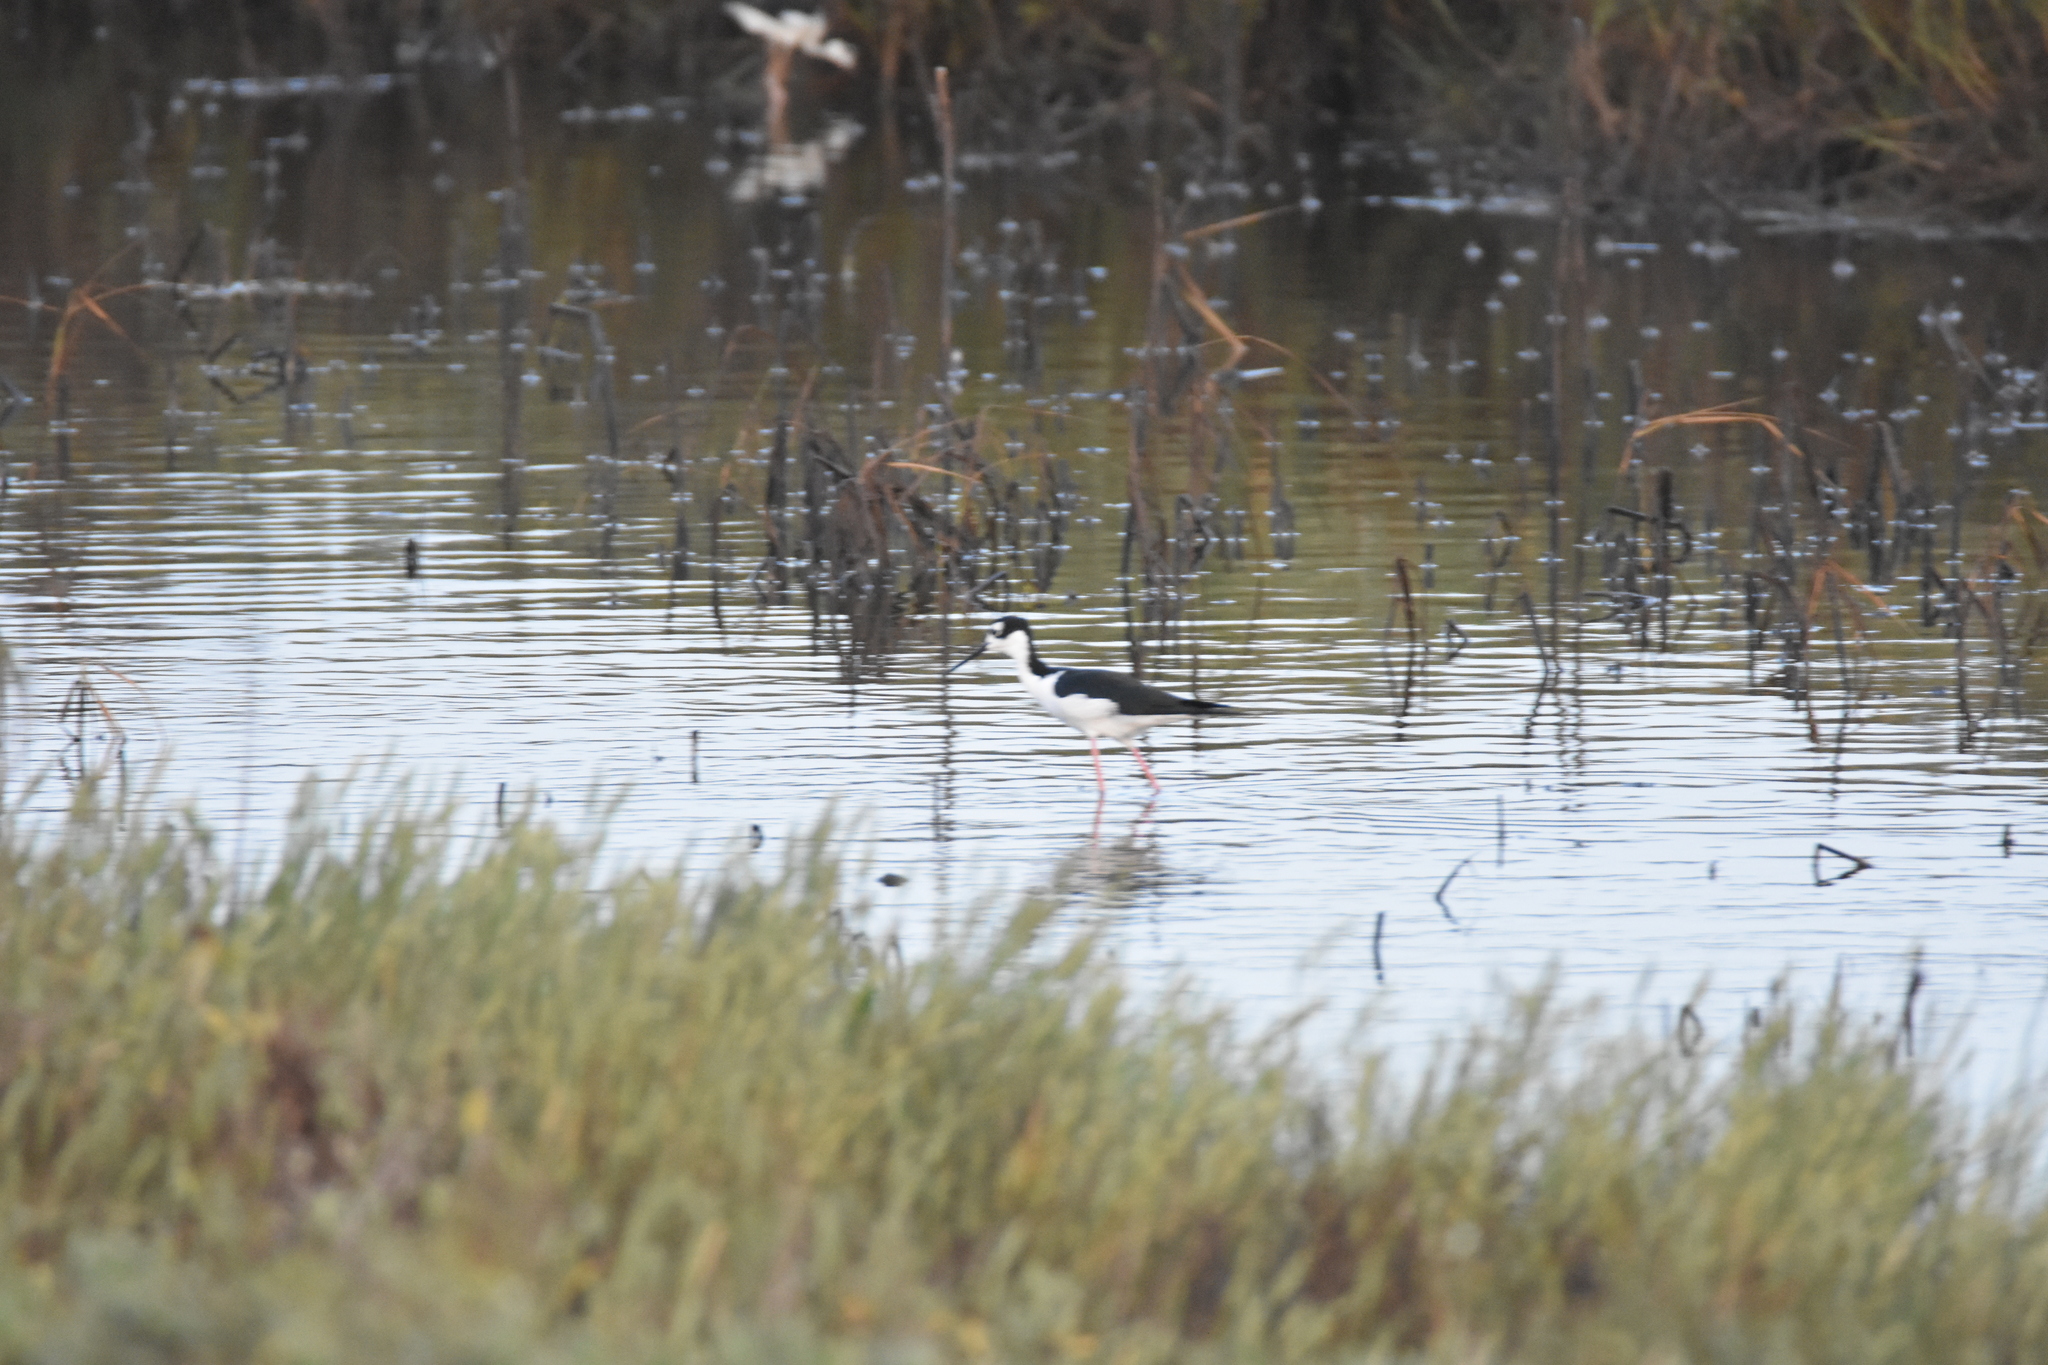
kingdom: Animalia
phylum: Chordata
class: Aves
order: Charadriiformes
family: Recurvirostridae
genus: Himantopus
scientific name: Himantopus mexicanus
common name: Black-necked stilt
